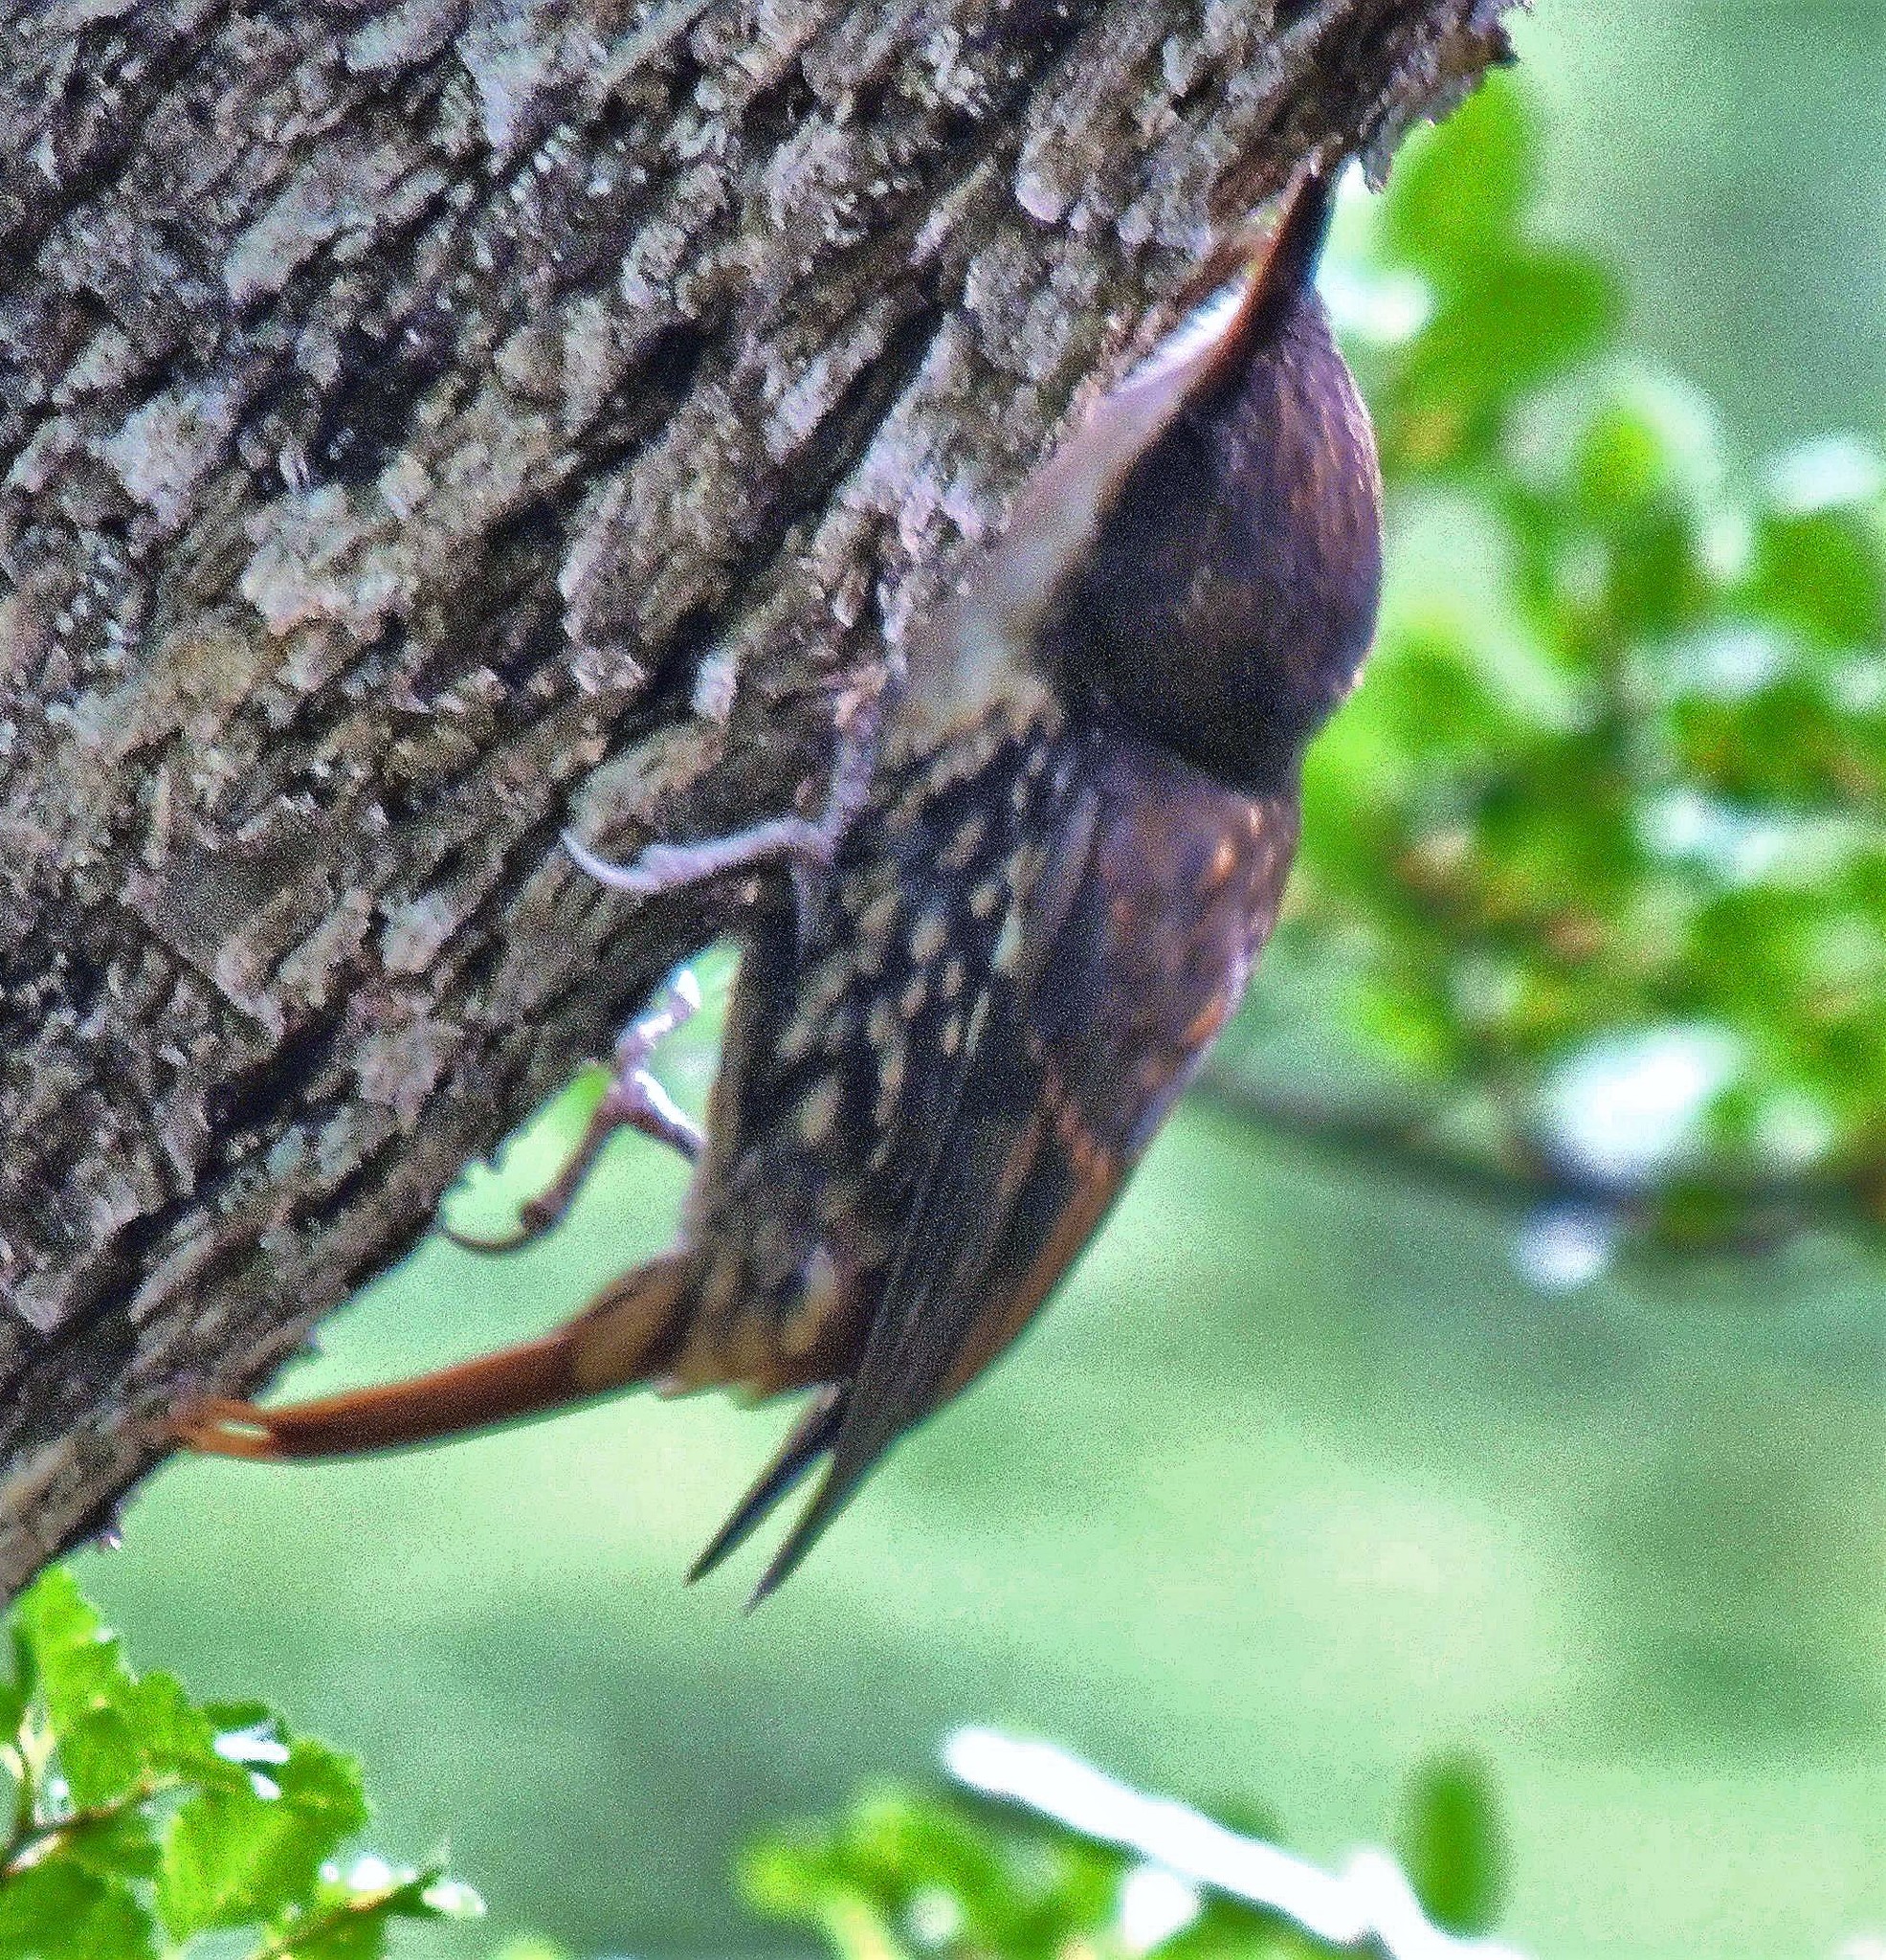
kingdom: Animalia
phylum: Chordata
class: Aves
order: Passeriformes
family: Furnariidae
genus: Pygarrhichas
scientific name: Pygarrhichas albogularis
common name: White-throated treerunner
